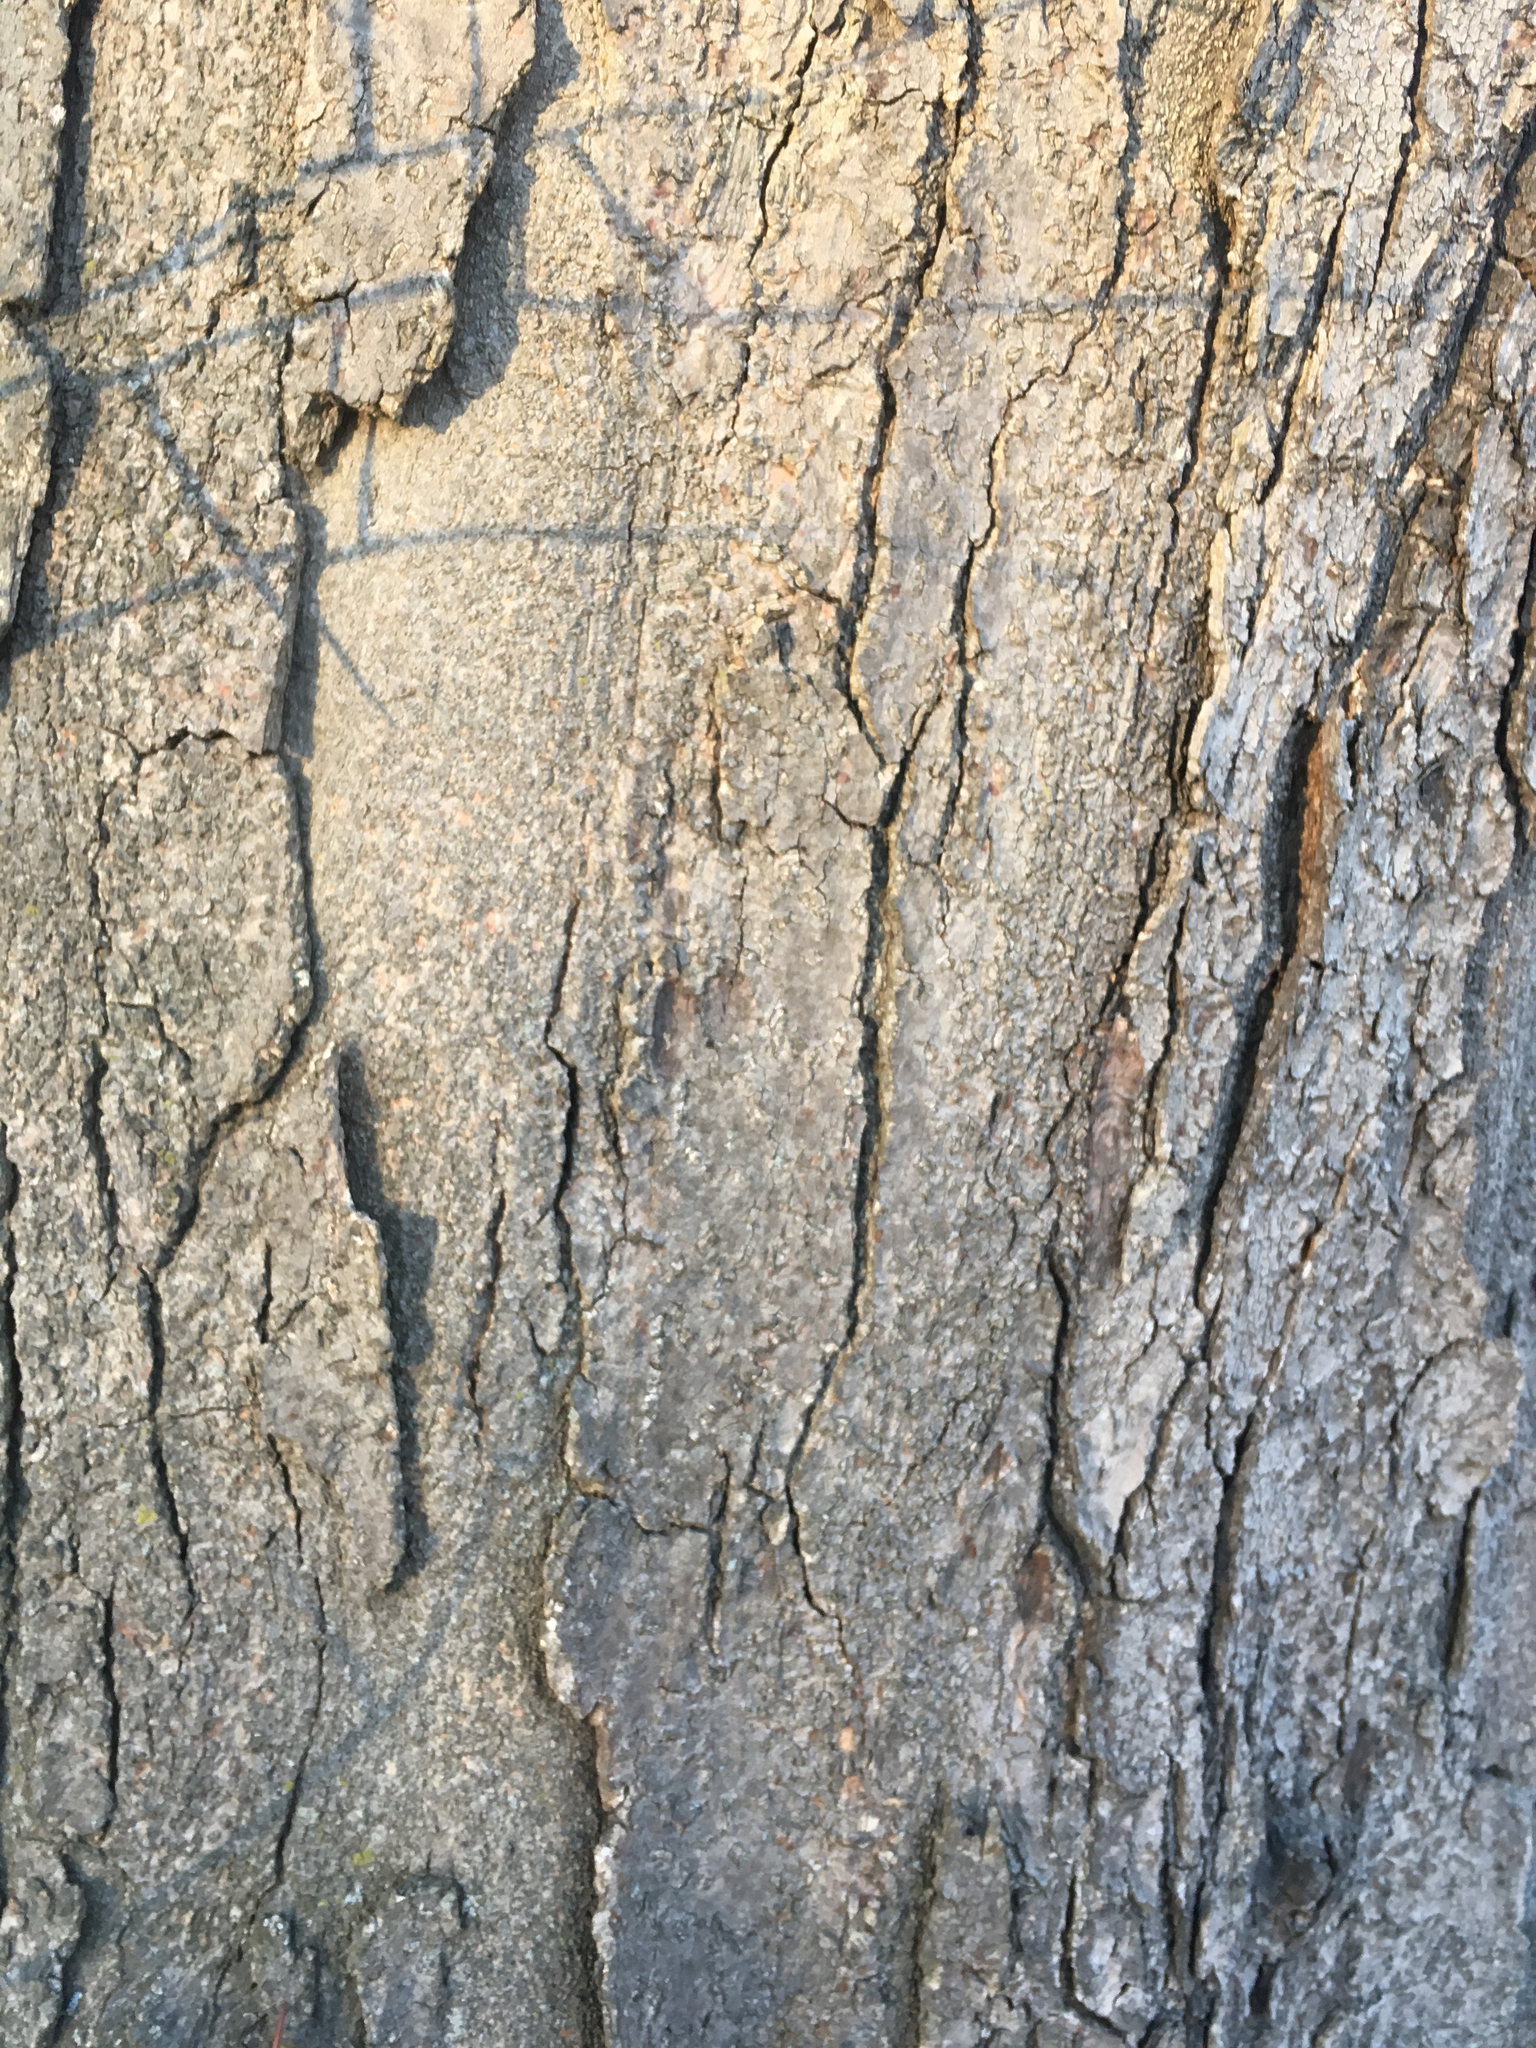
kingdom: Plantae
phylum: Tracheophyta
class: Magnoliopsida
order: Fabales
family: Fabaceae
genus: Gleditsia
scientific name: Gleditsia triacanthos
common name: Common honeylocust
